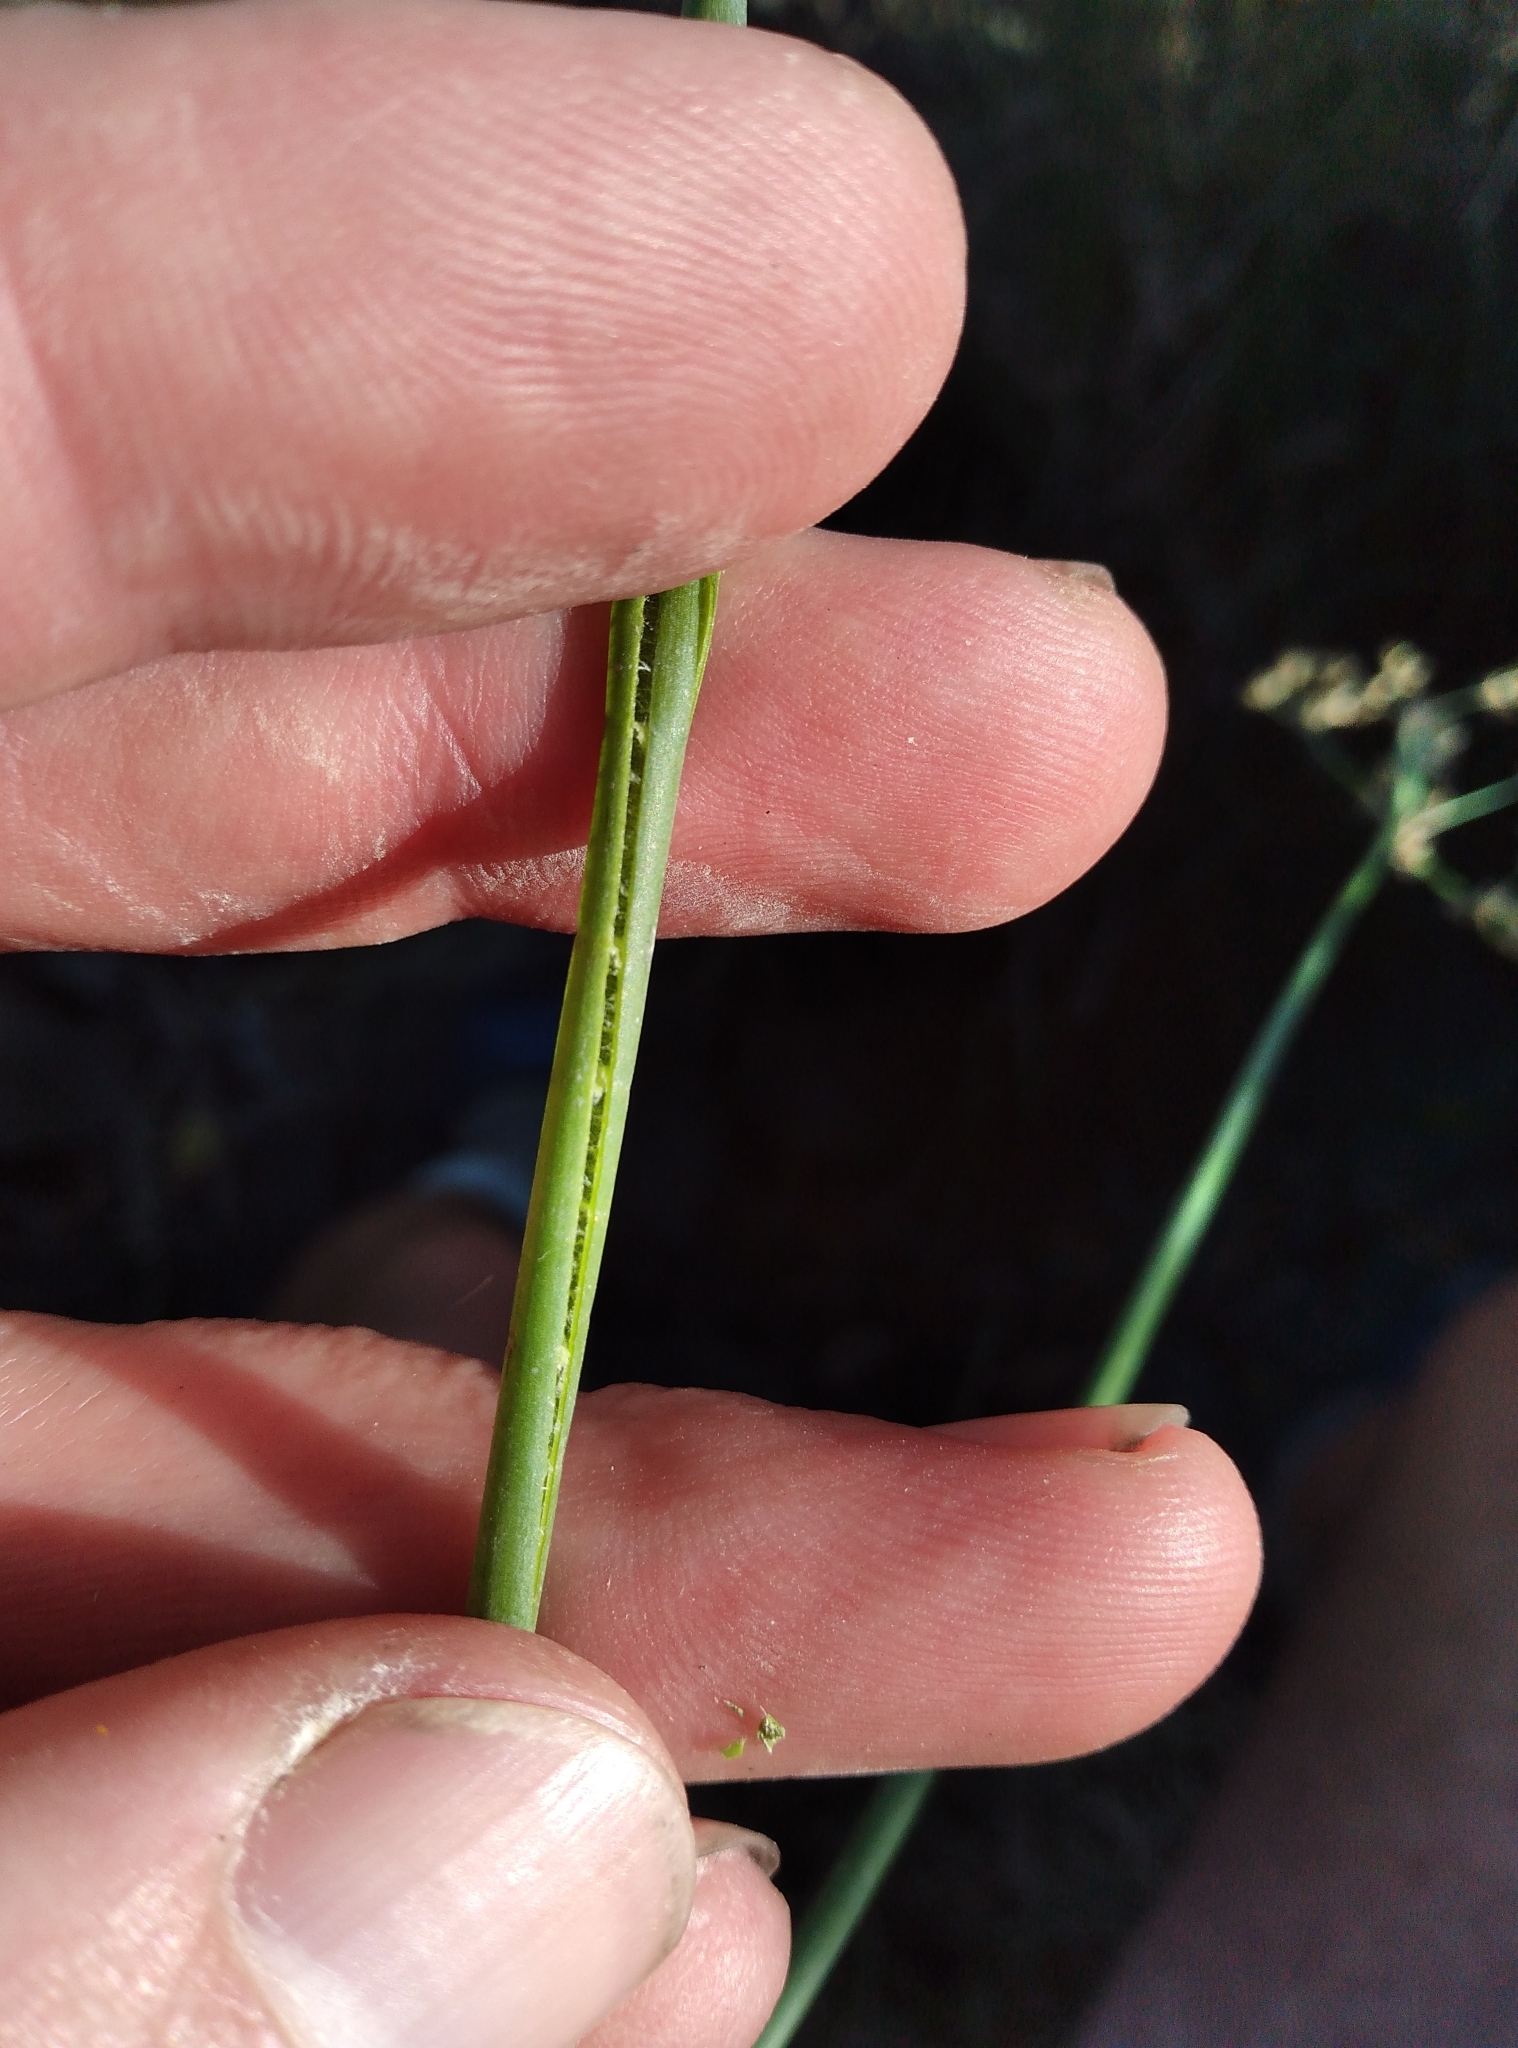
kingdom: Plantae
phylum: Tracheophyta
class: Liliopsida
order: Poales
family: Juncaceae
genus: Juncus
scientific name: Juncus microcephalus
